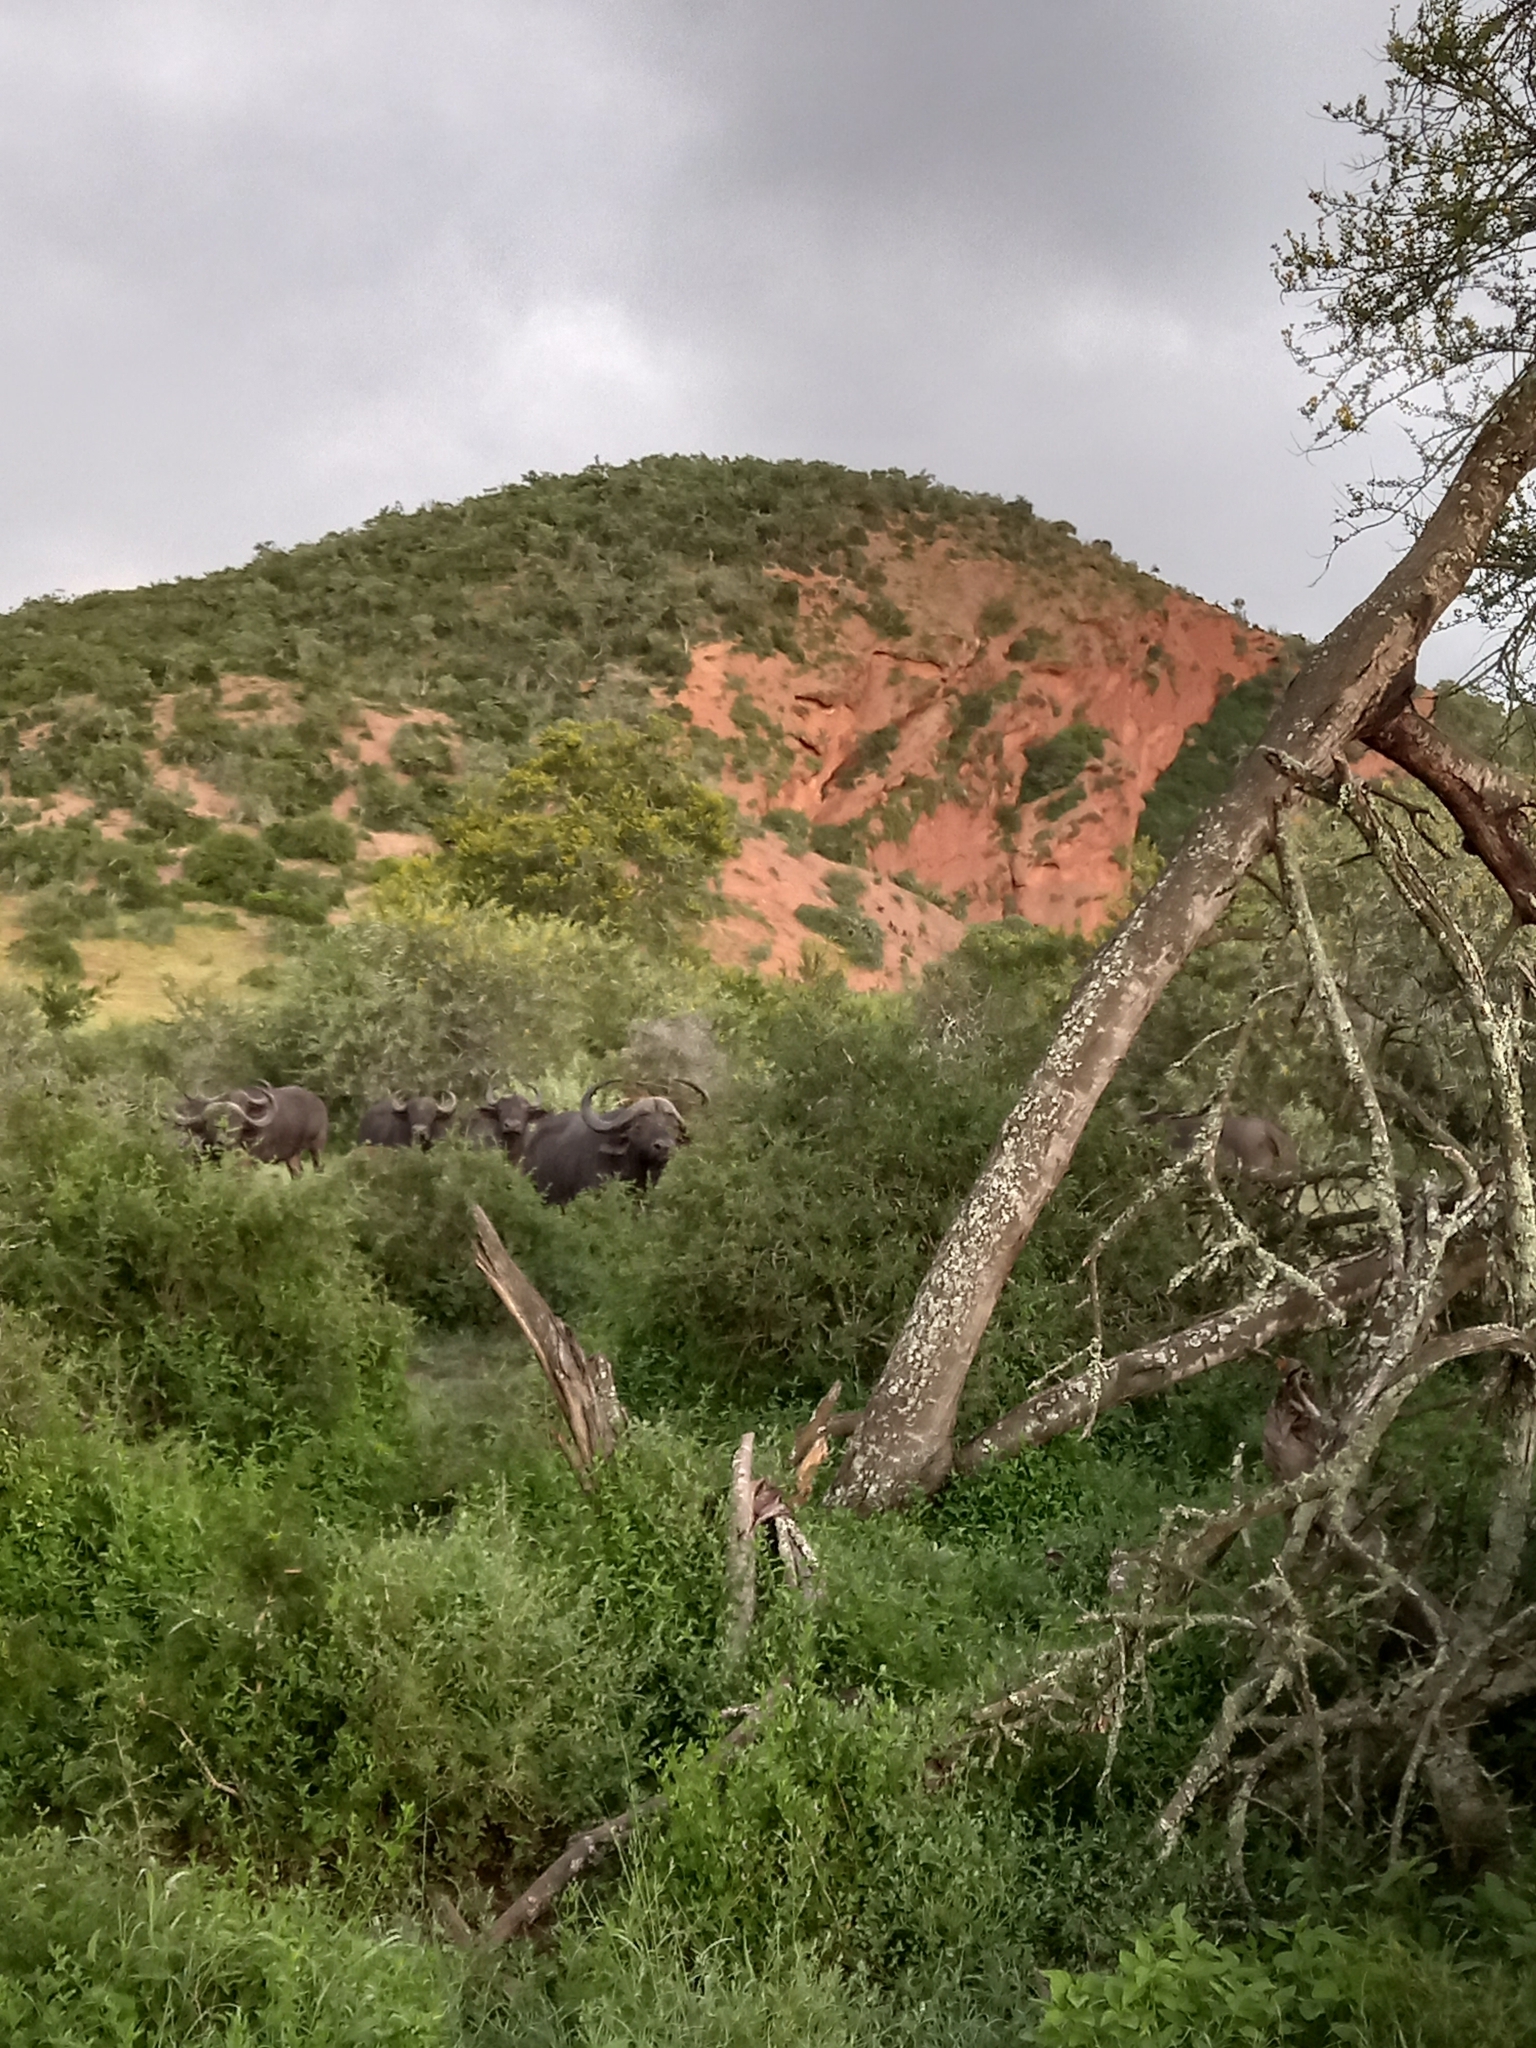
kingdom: Animalia
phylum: Chordata
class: Mammalia
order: Artiodactyla
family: Bovidae
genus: Syncerus
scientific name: Syncerus caffer
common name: African buffalo
